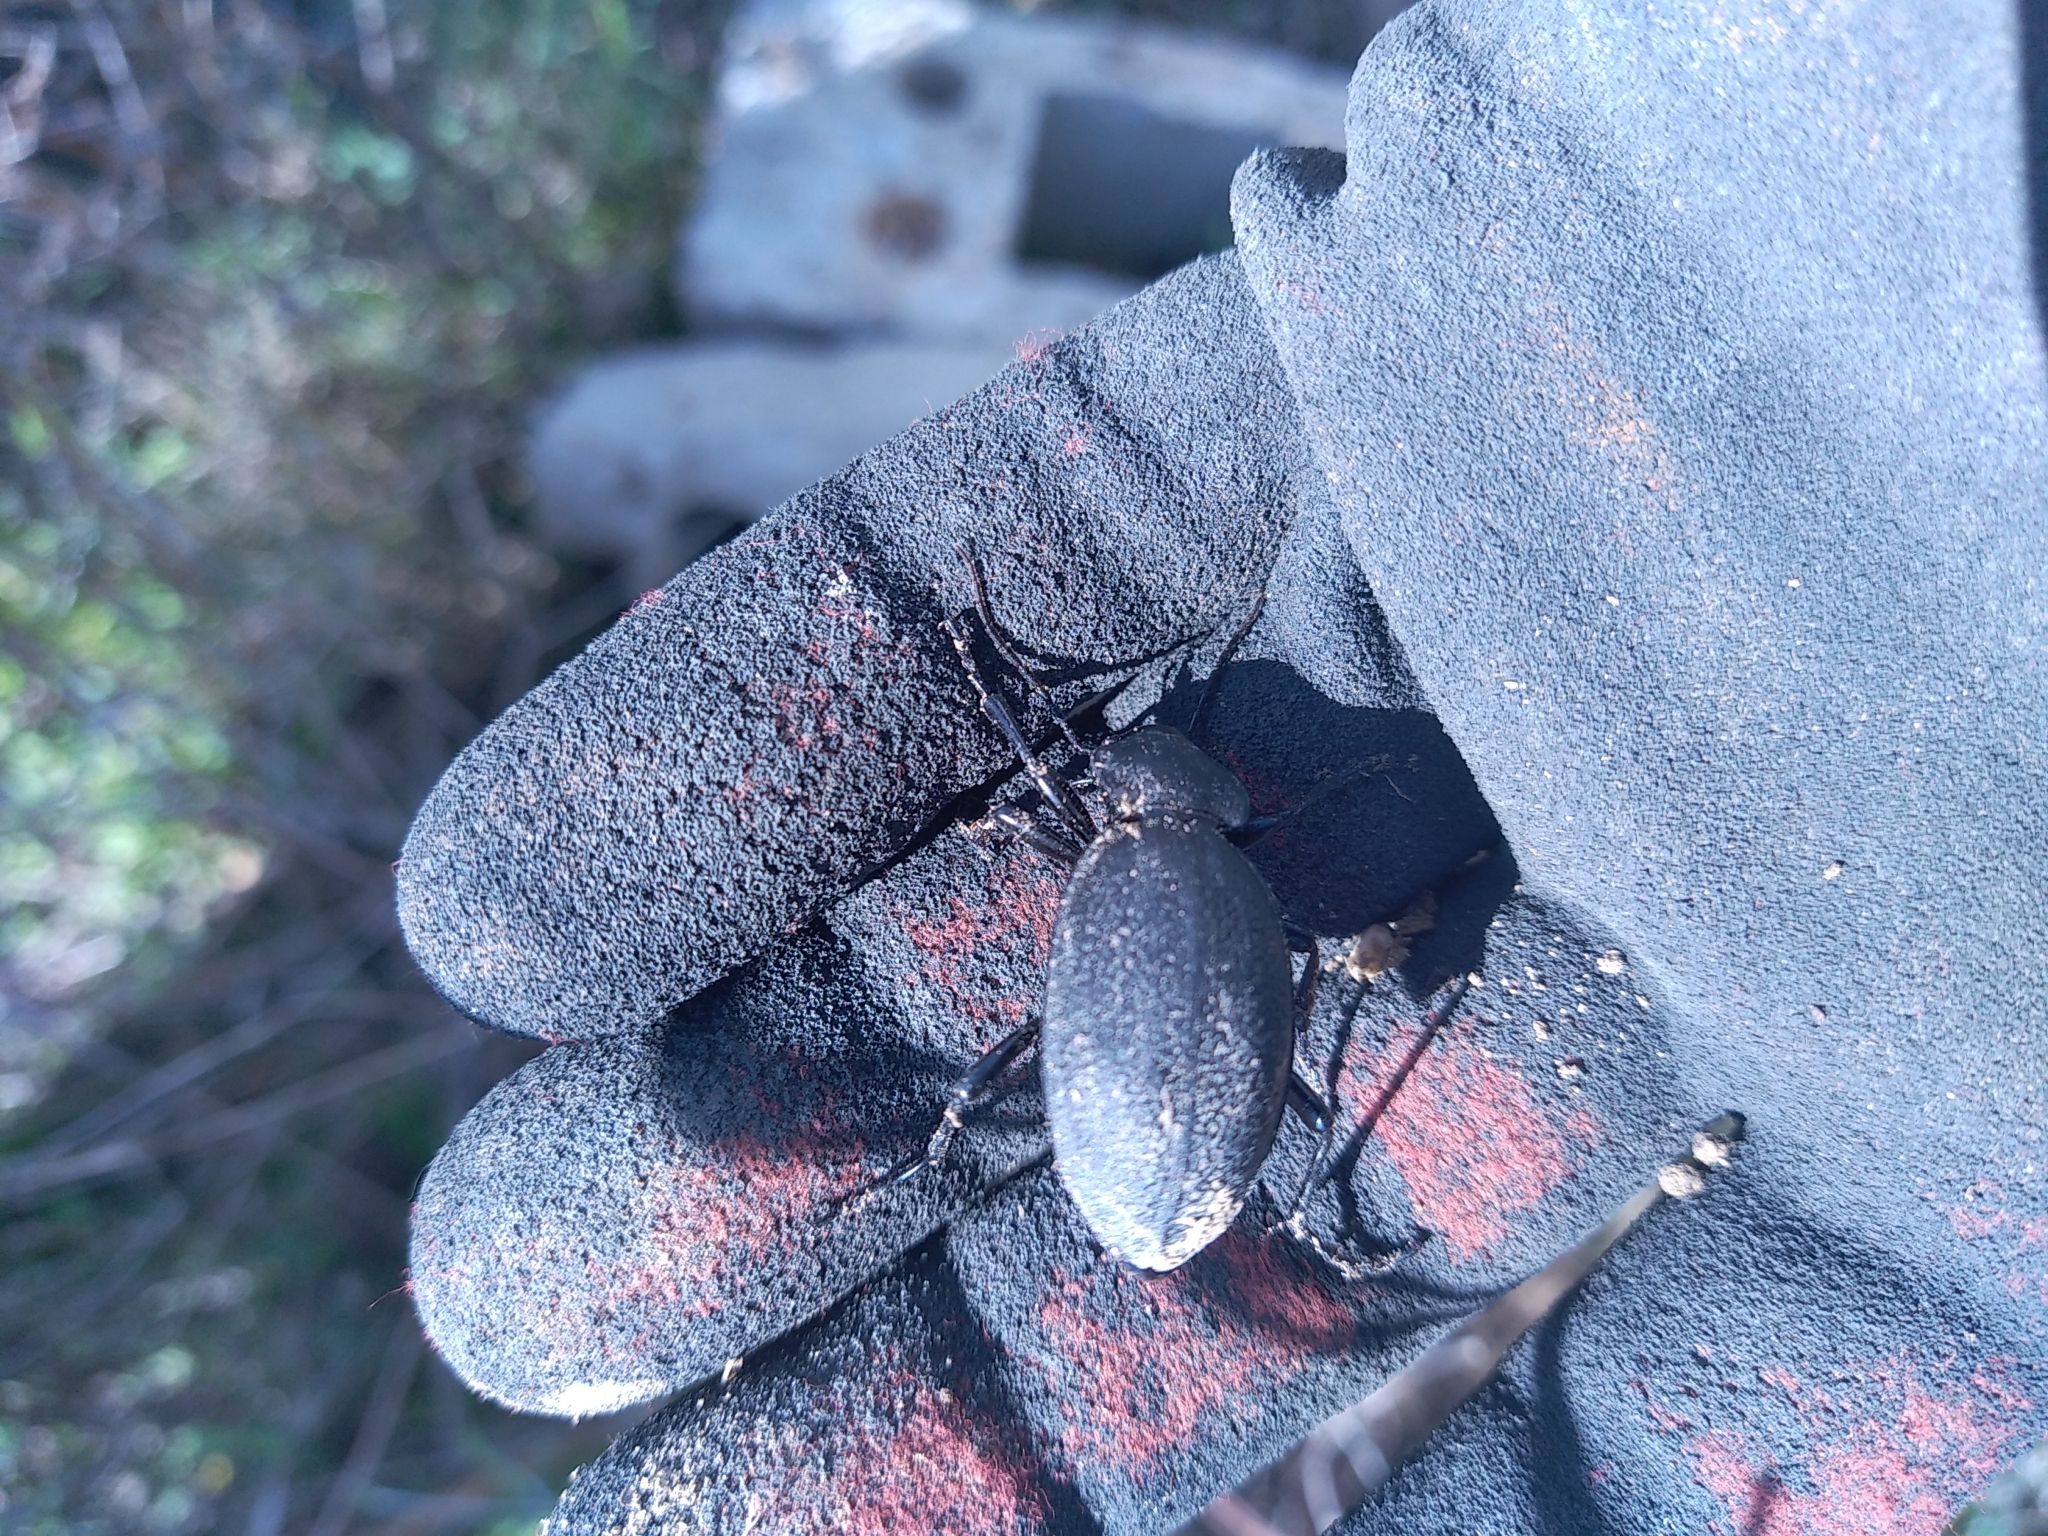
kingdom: Animalia
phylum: Arthropoda
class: Insecta
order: Coleoptera
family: Carabidae
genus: Carabus
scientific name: Carabus coriaceus
